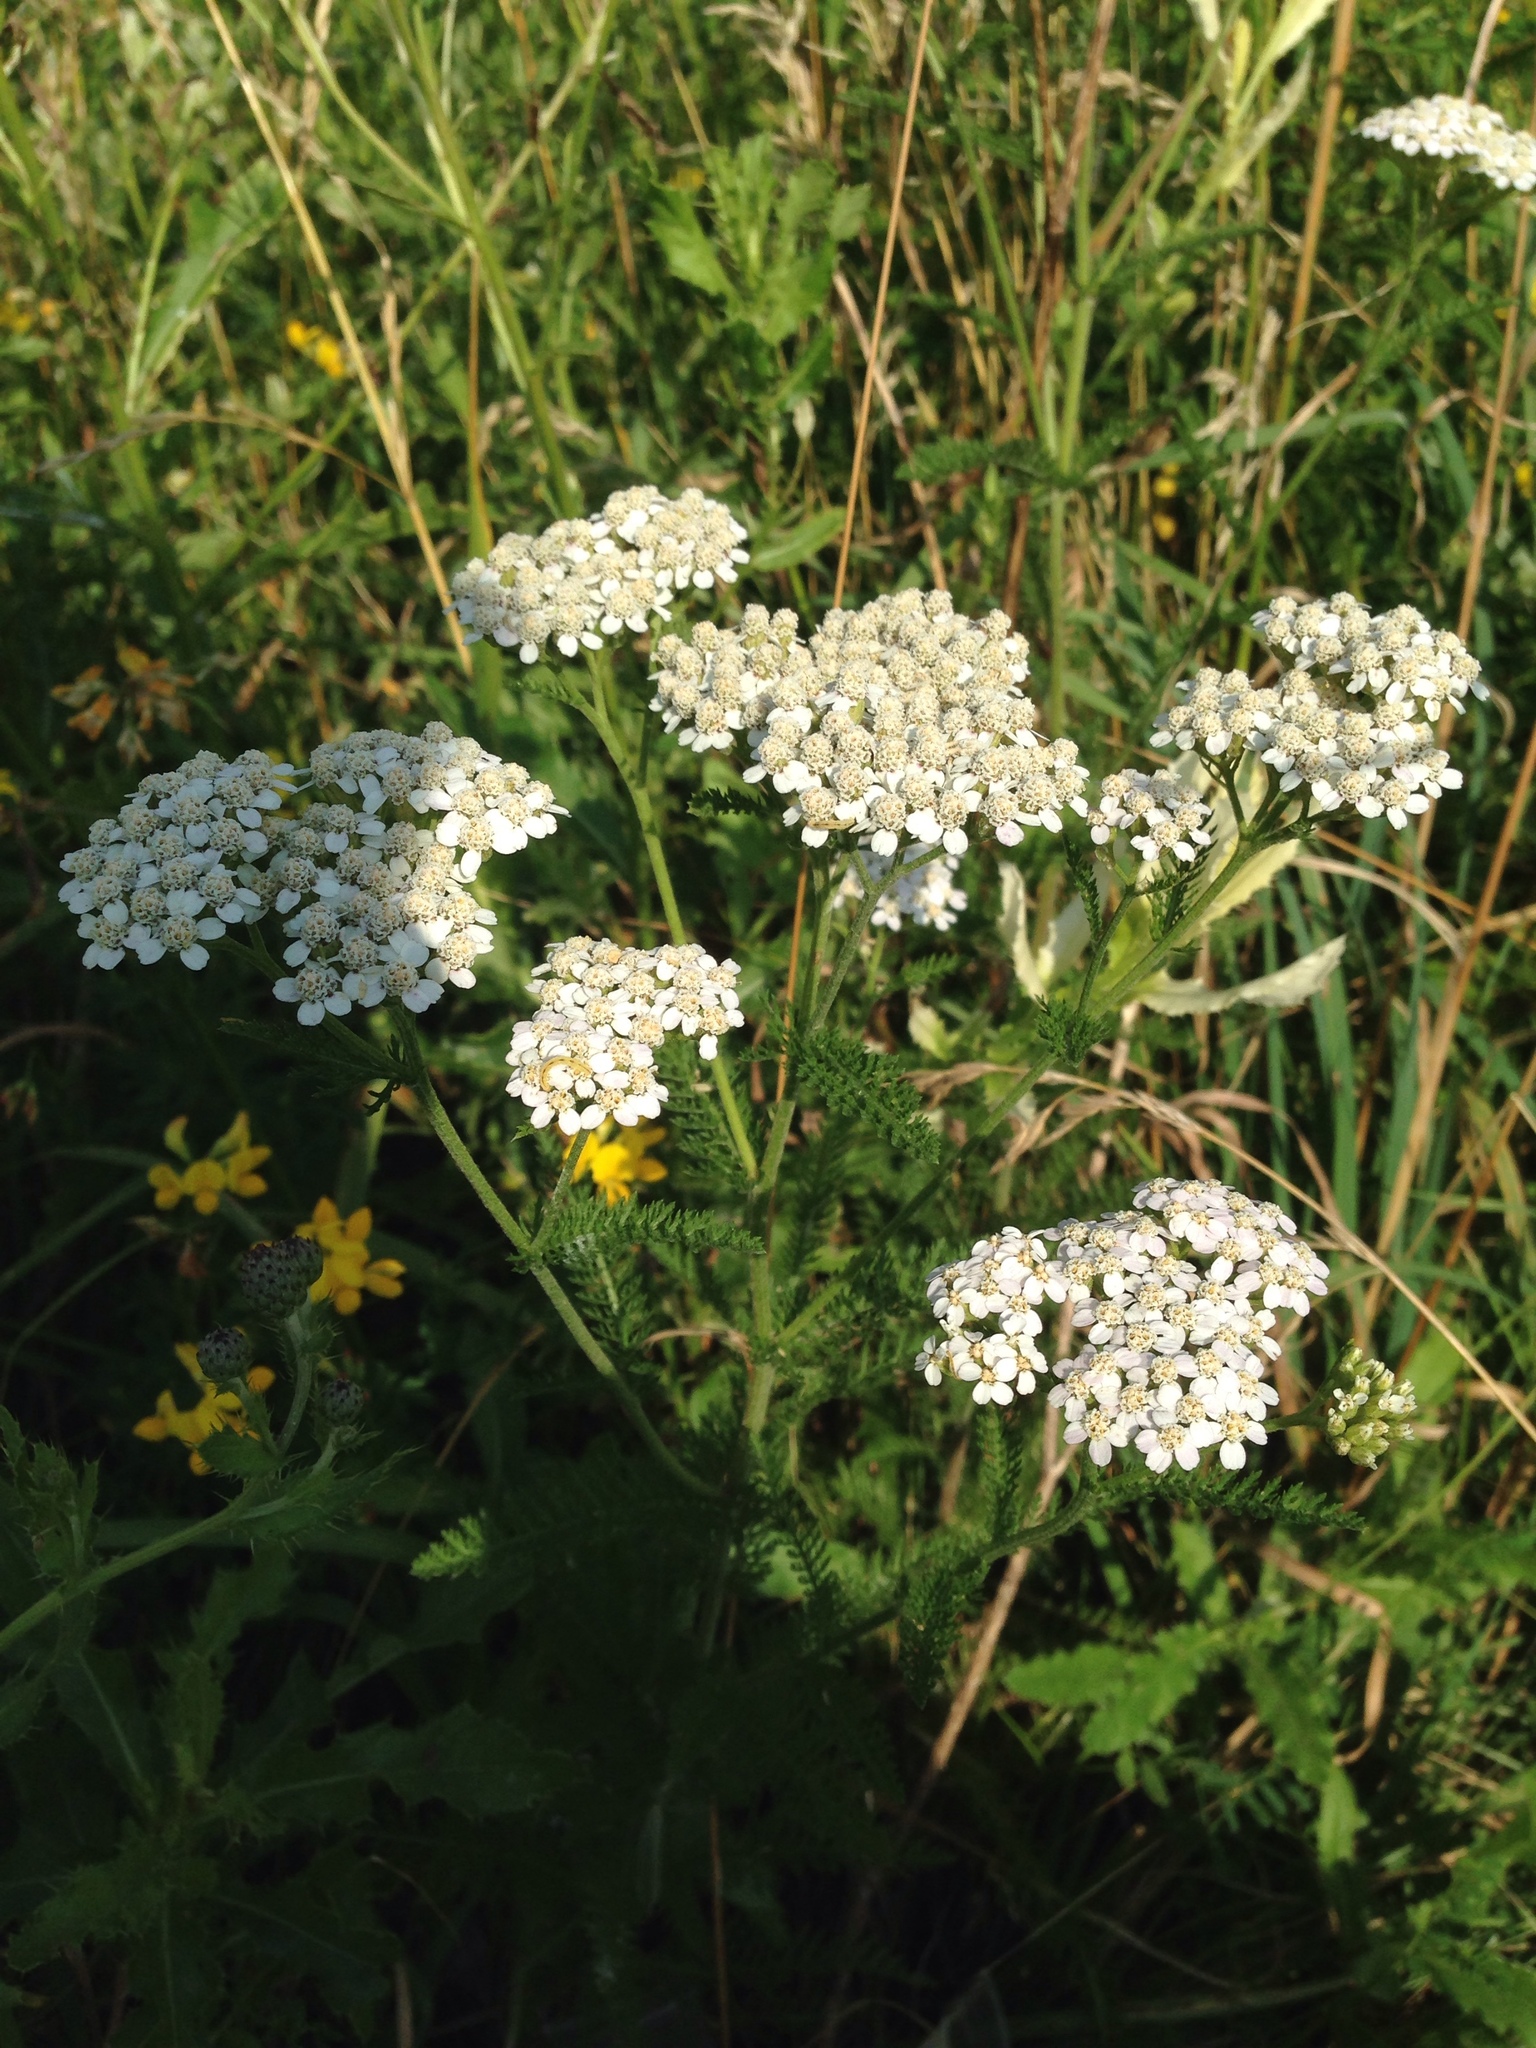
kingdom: Plantae
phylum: Tracheophyta
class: Magnoliopsida
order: Asterales
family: Asteraceae
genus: Achillea
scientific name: Achillea millefolium
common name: Yarrow
